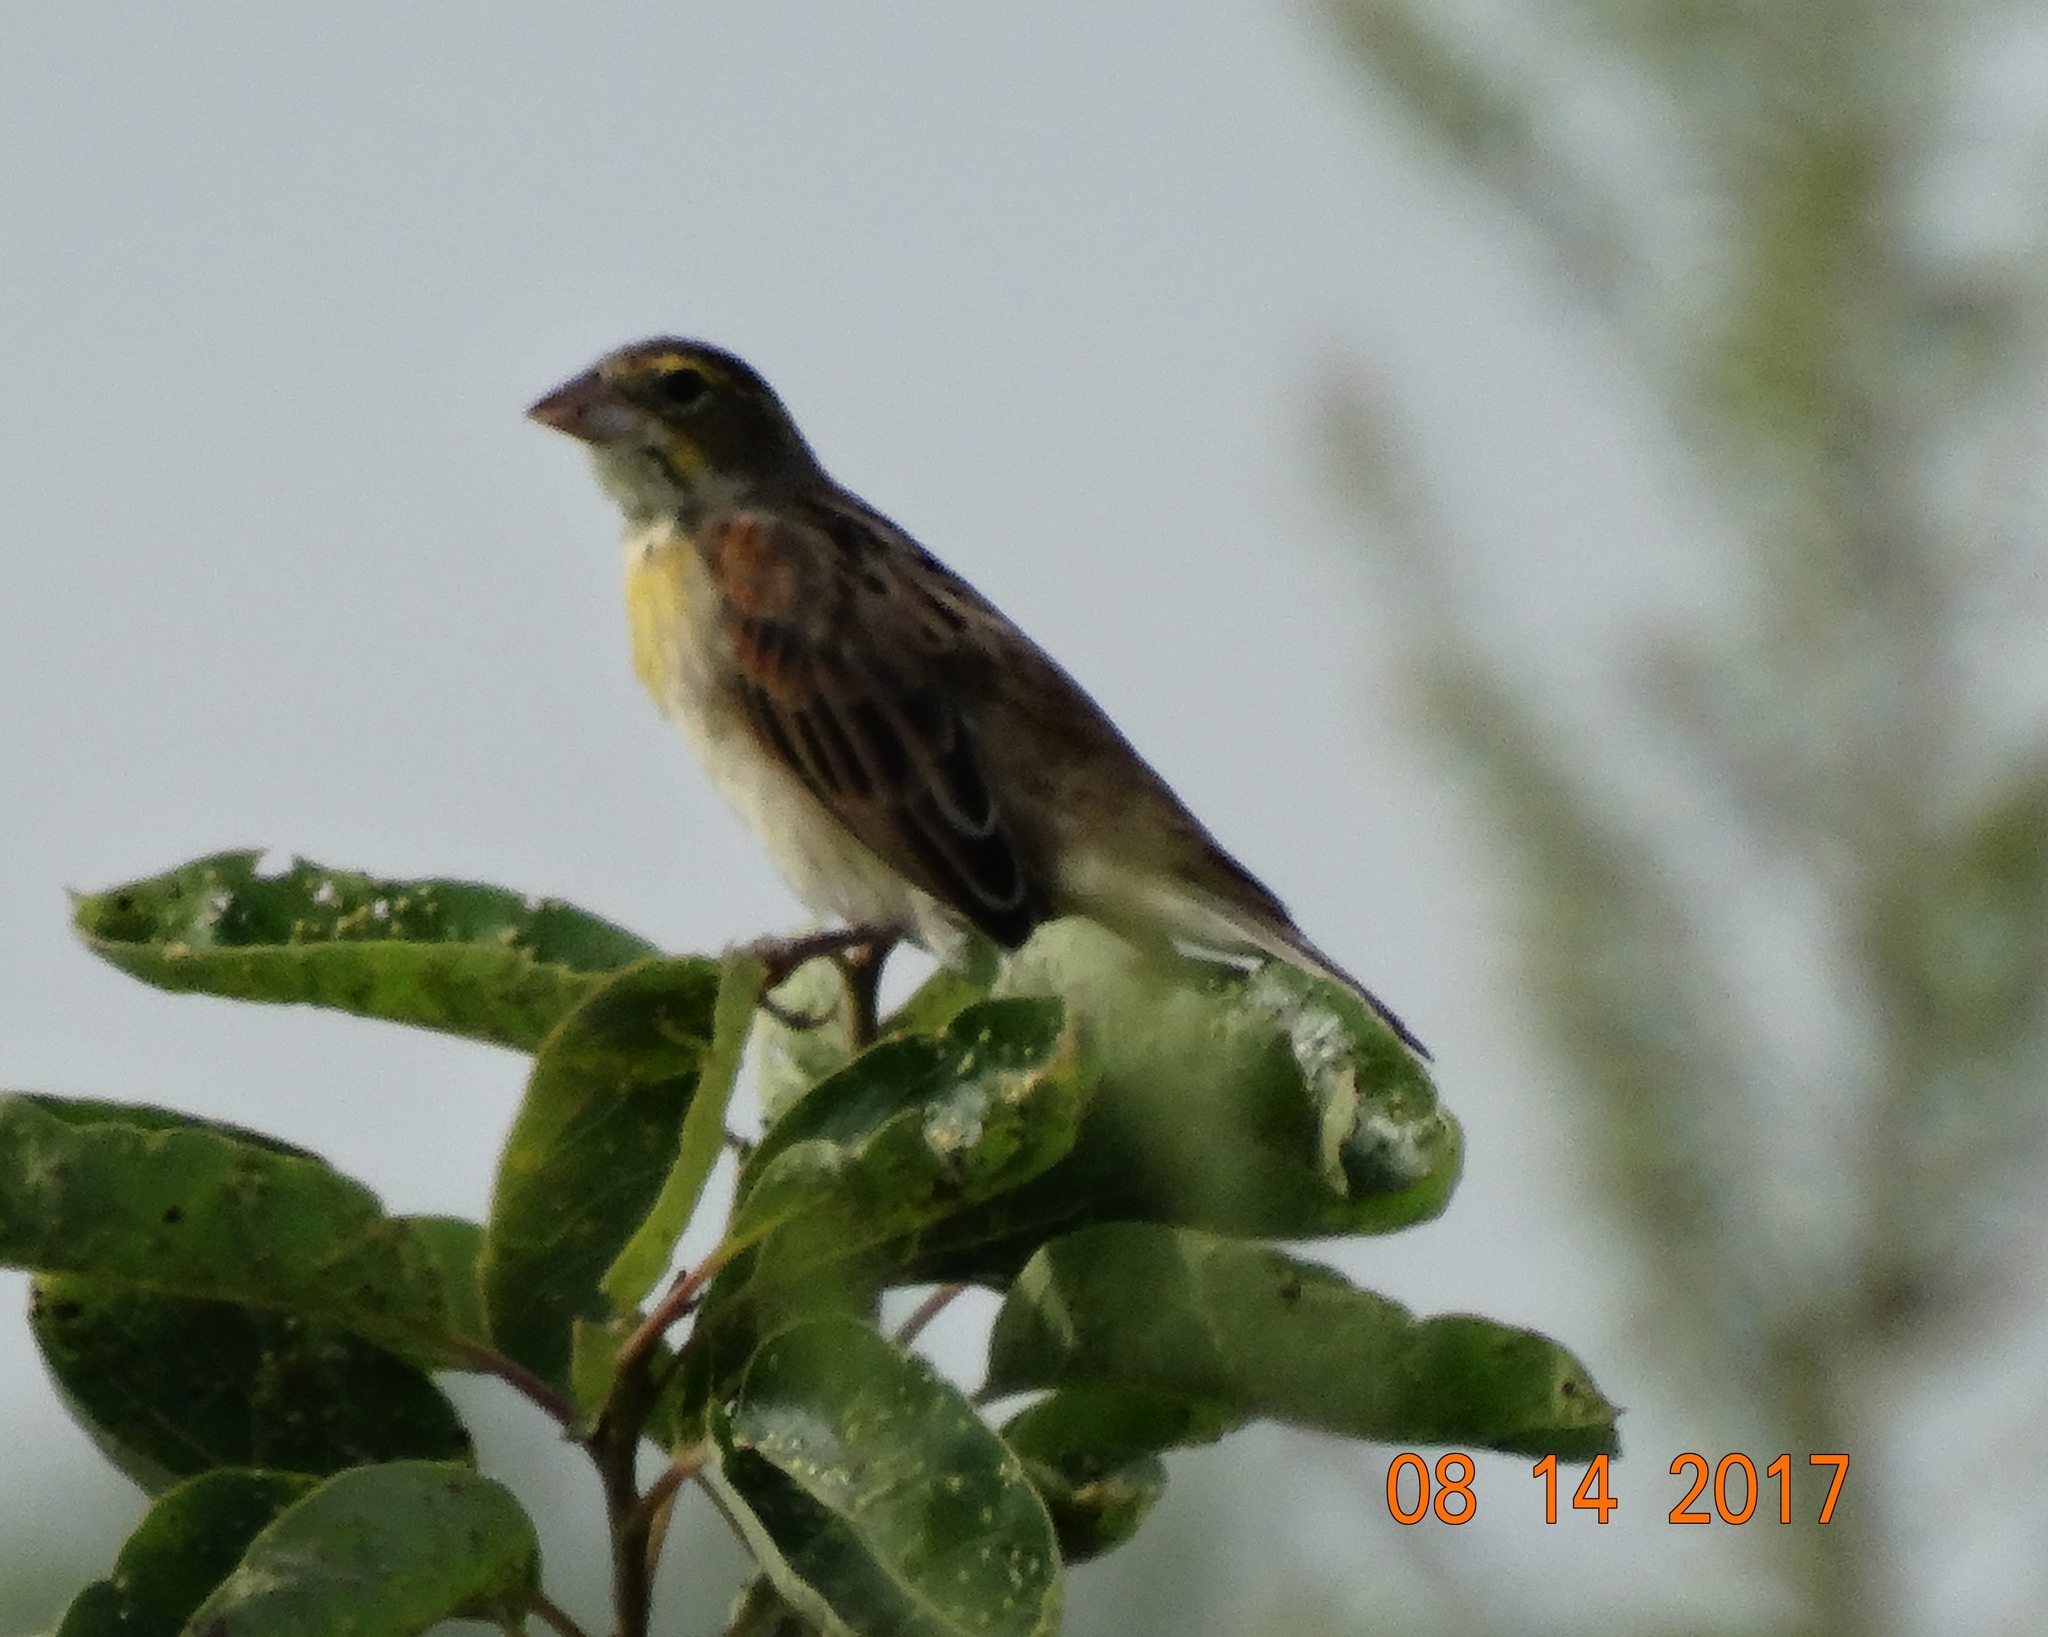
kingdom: Animalia
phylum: Chordata
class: Aves
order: Passeriformes
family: Cardinalidae
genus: Spiza
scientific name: Spiza americana
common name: Dickcissel
